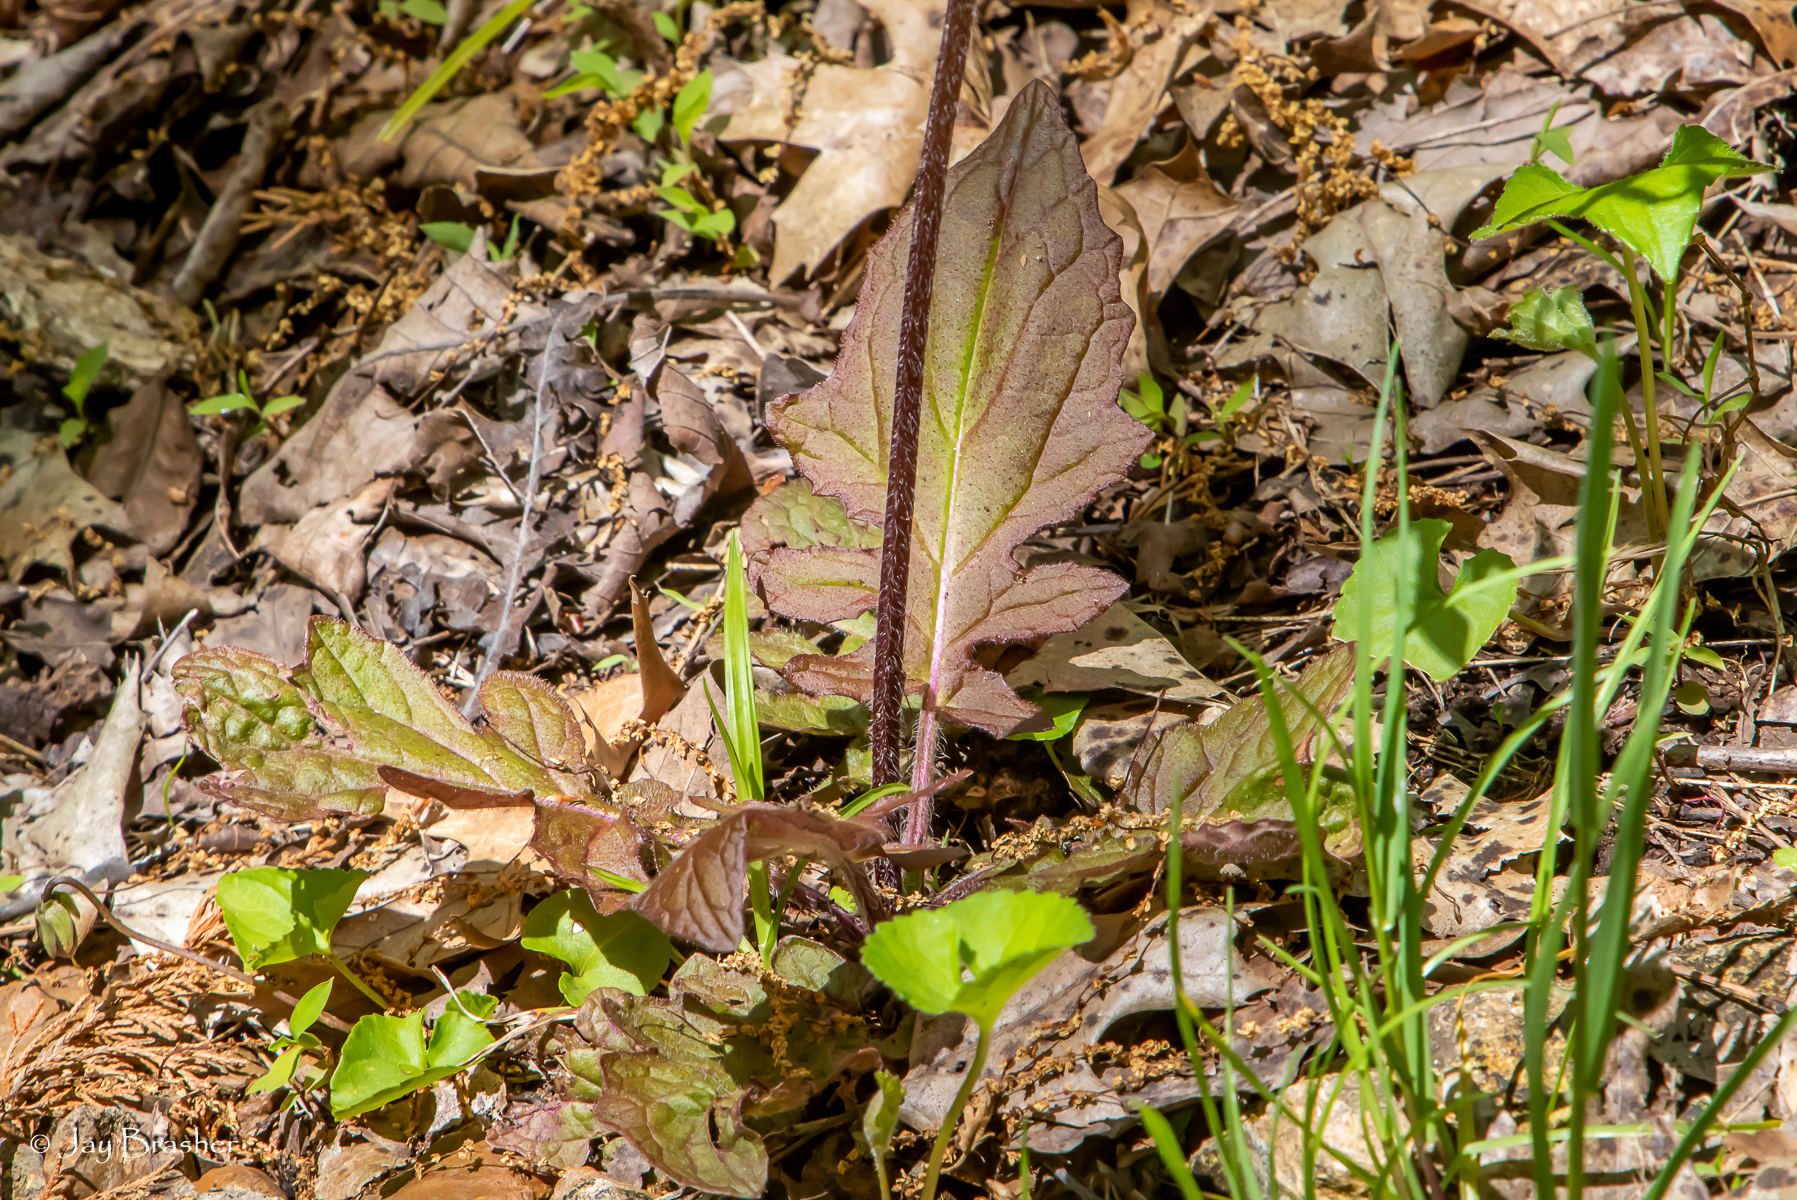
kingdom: Plantae
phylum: Tracheophyta
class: Magnoliopsida
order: Lamiales
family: Lamiaceae
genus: Salvia
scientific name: Salvia lyrata
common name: Cancerweed
